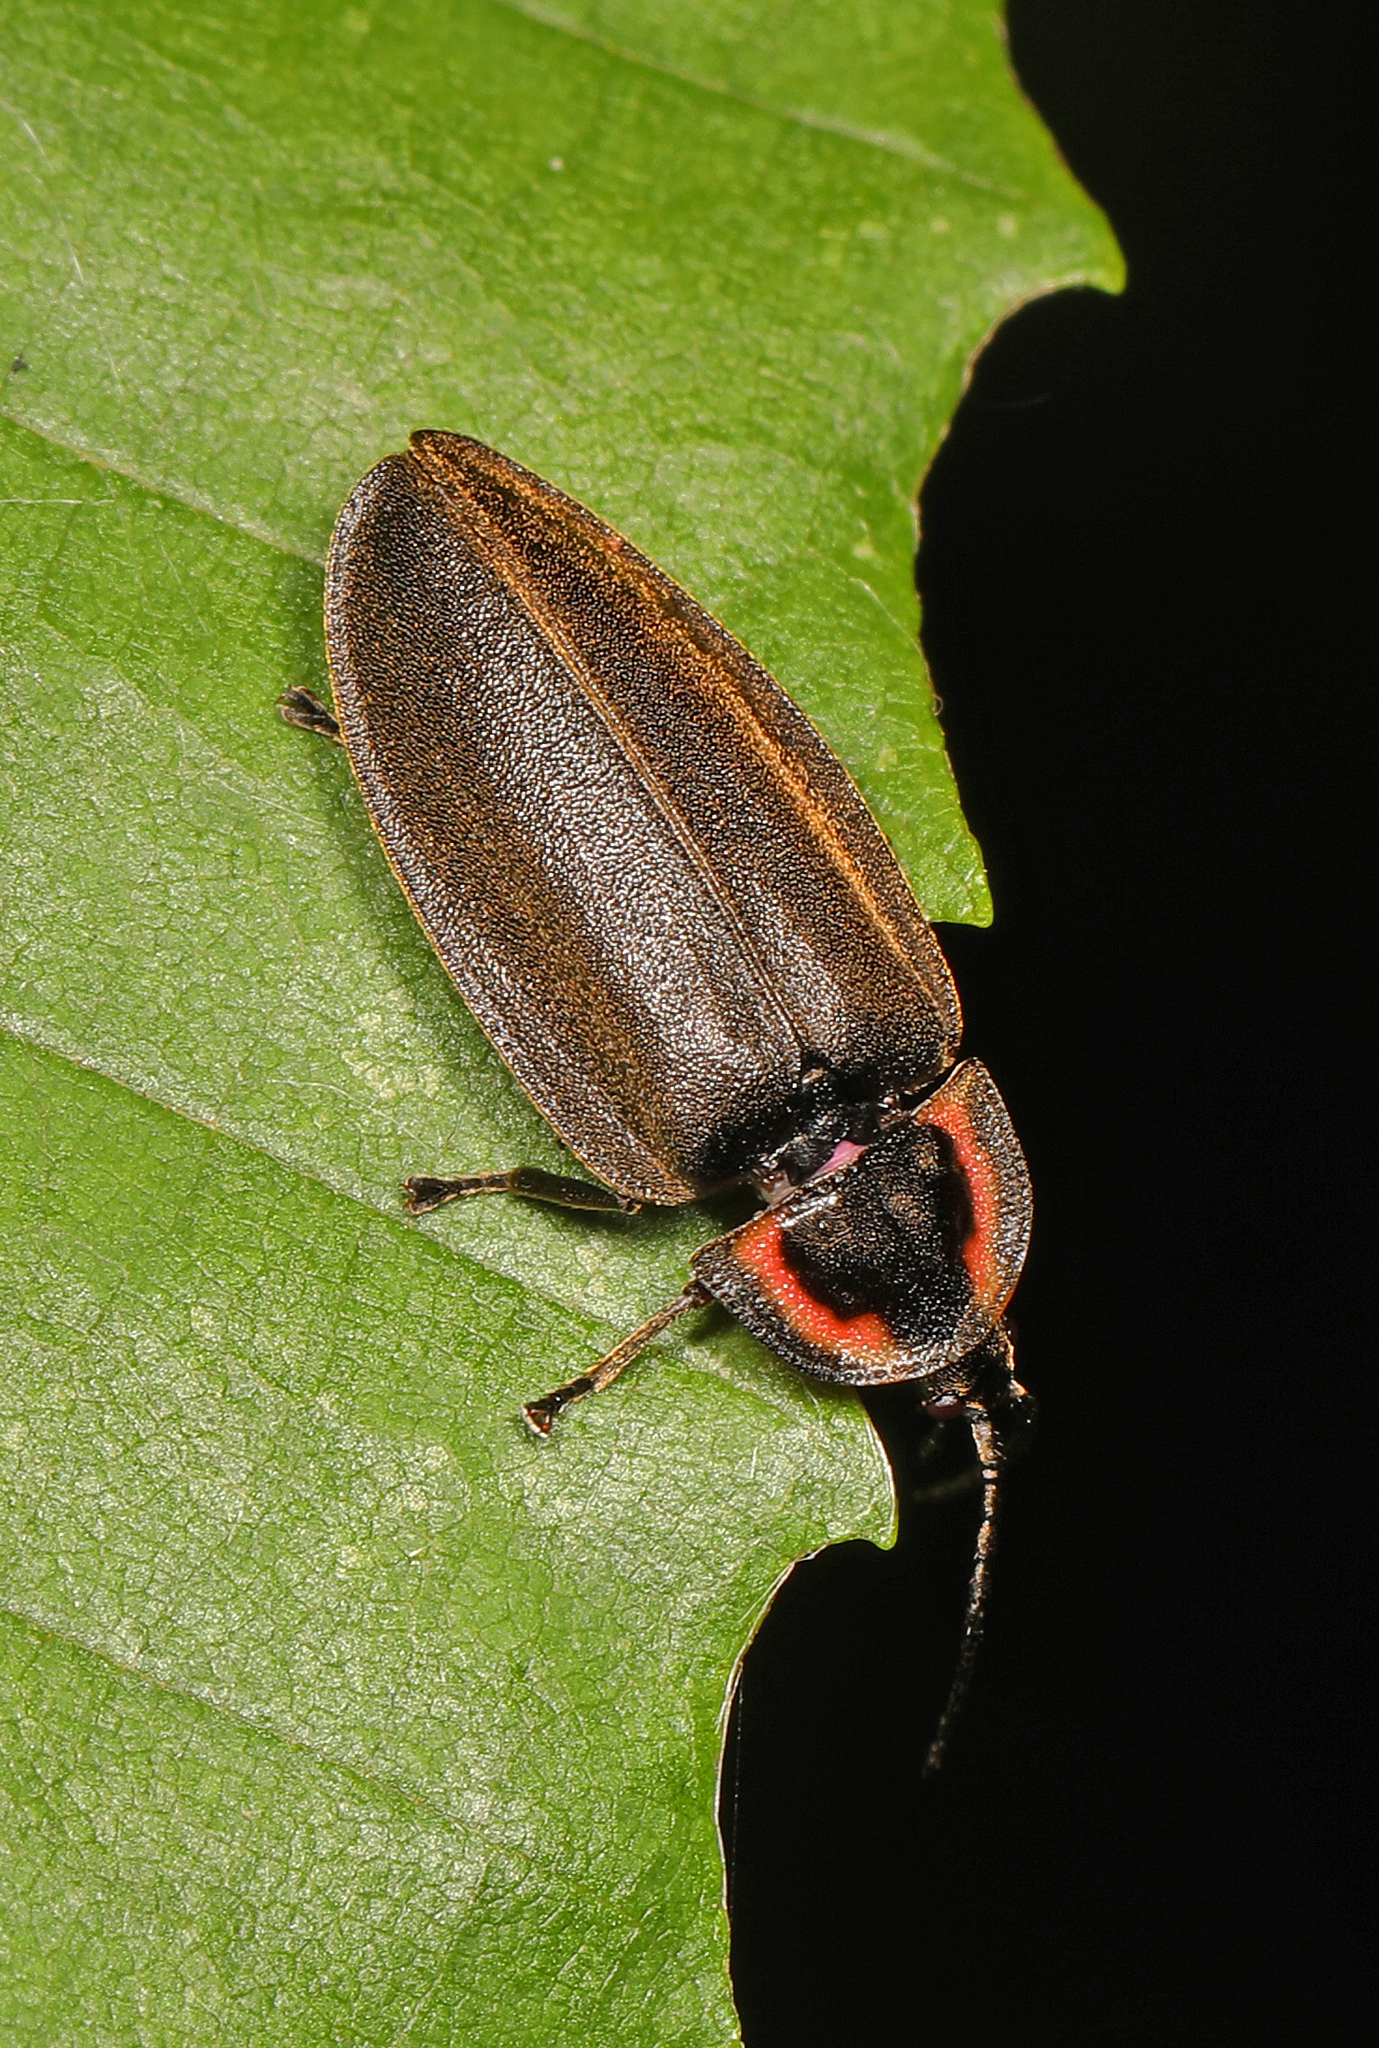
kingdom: Animalia
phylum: Arthropoda
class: Insecta
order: Coleoptera
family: Lampyridae
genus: Photinus
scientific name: Photinus corrusca
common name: Winter firefly
